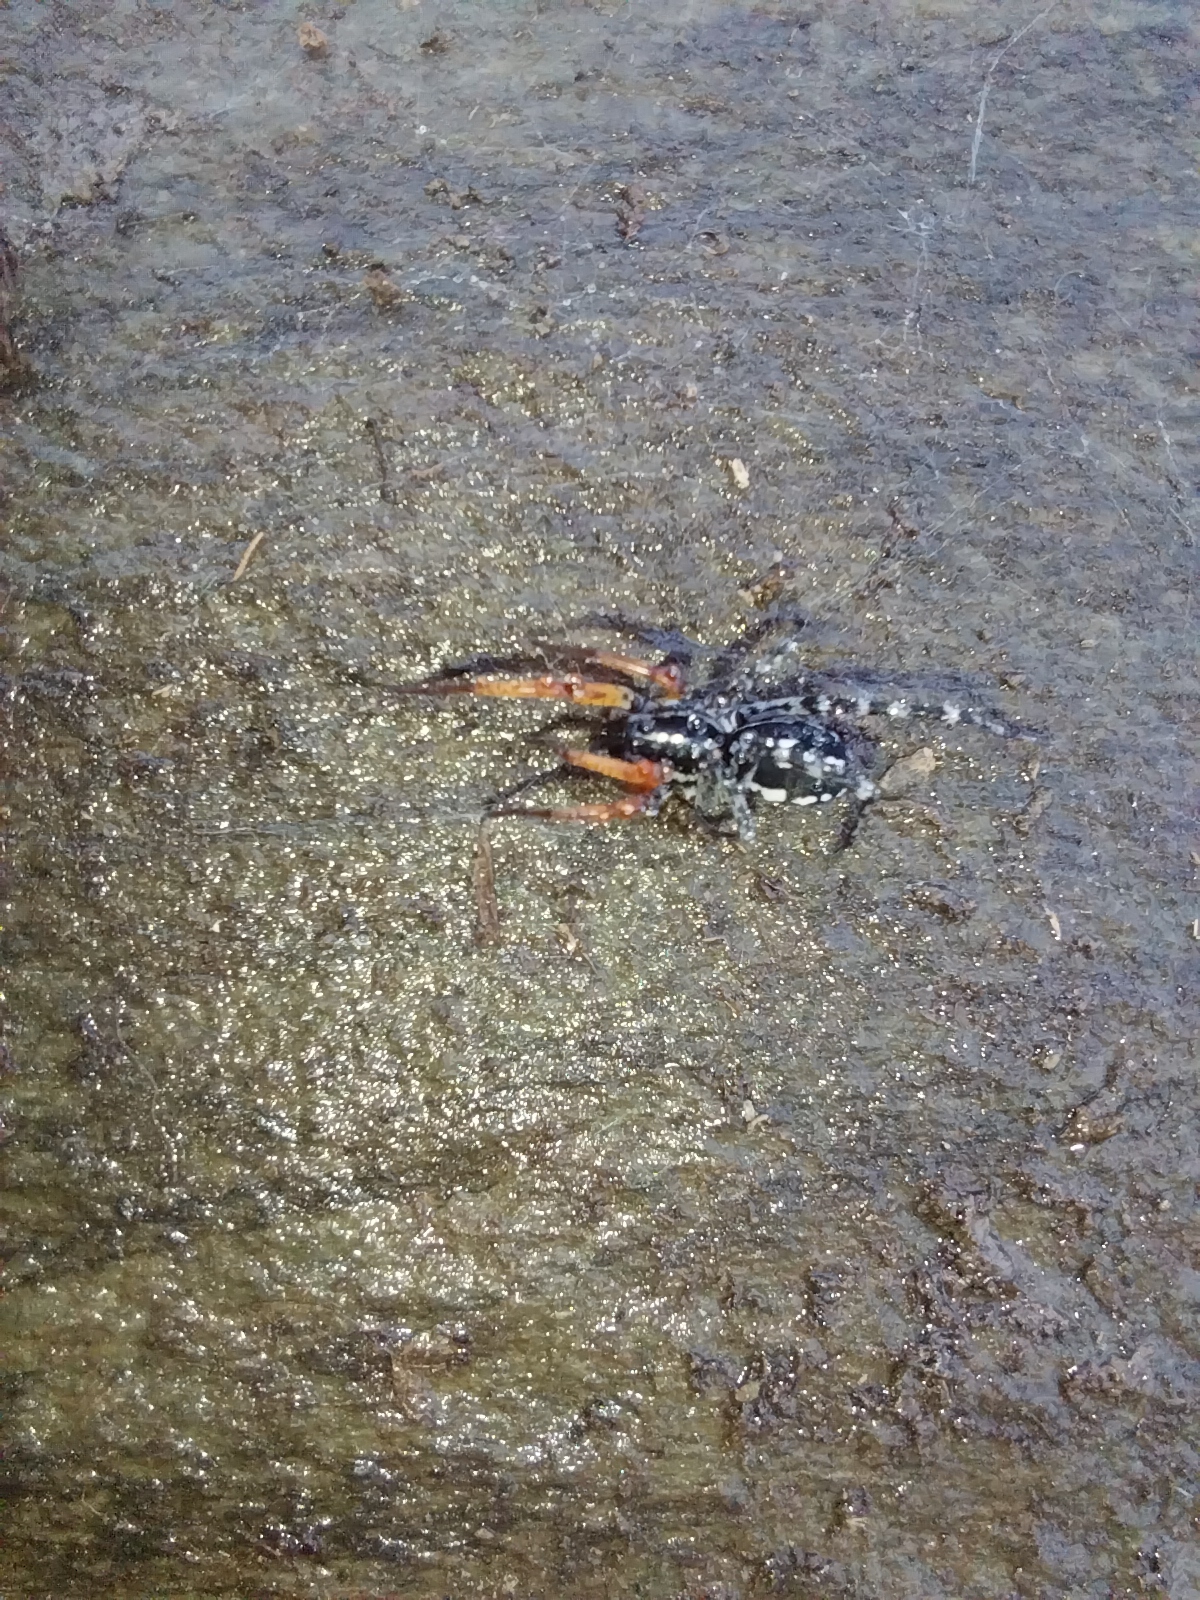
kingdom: Animalia
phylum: Arthropoda
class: Arachnida
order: Araneae
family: Corinnidae
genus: Nyssus
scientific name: Nyssus coloripes
